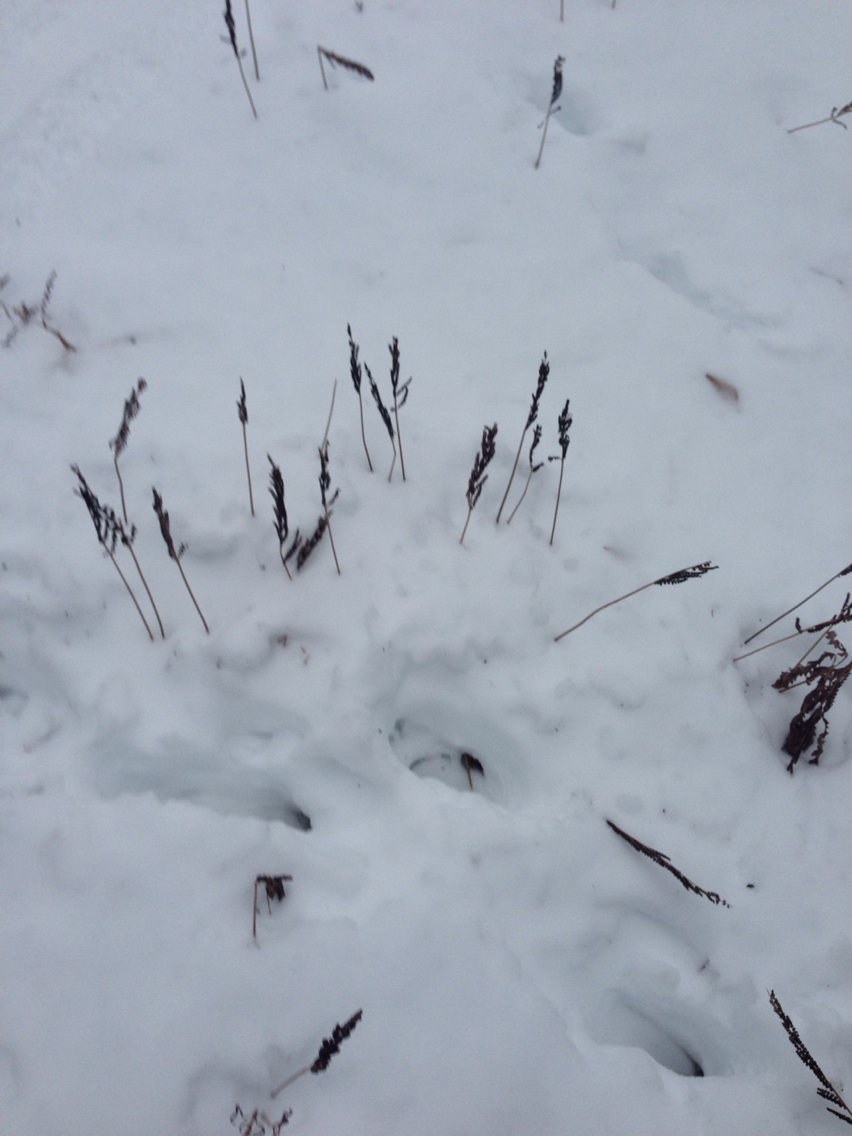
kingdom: Plantae
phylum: Tracheophyta
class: Polypodiopsida
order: Polypodiales
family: Onocleaceae
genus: Onoclea
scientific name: Onoclea sensibilis
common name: Sensitive fern
